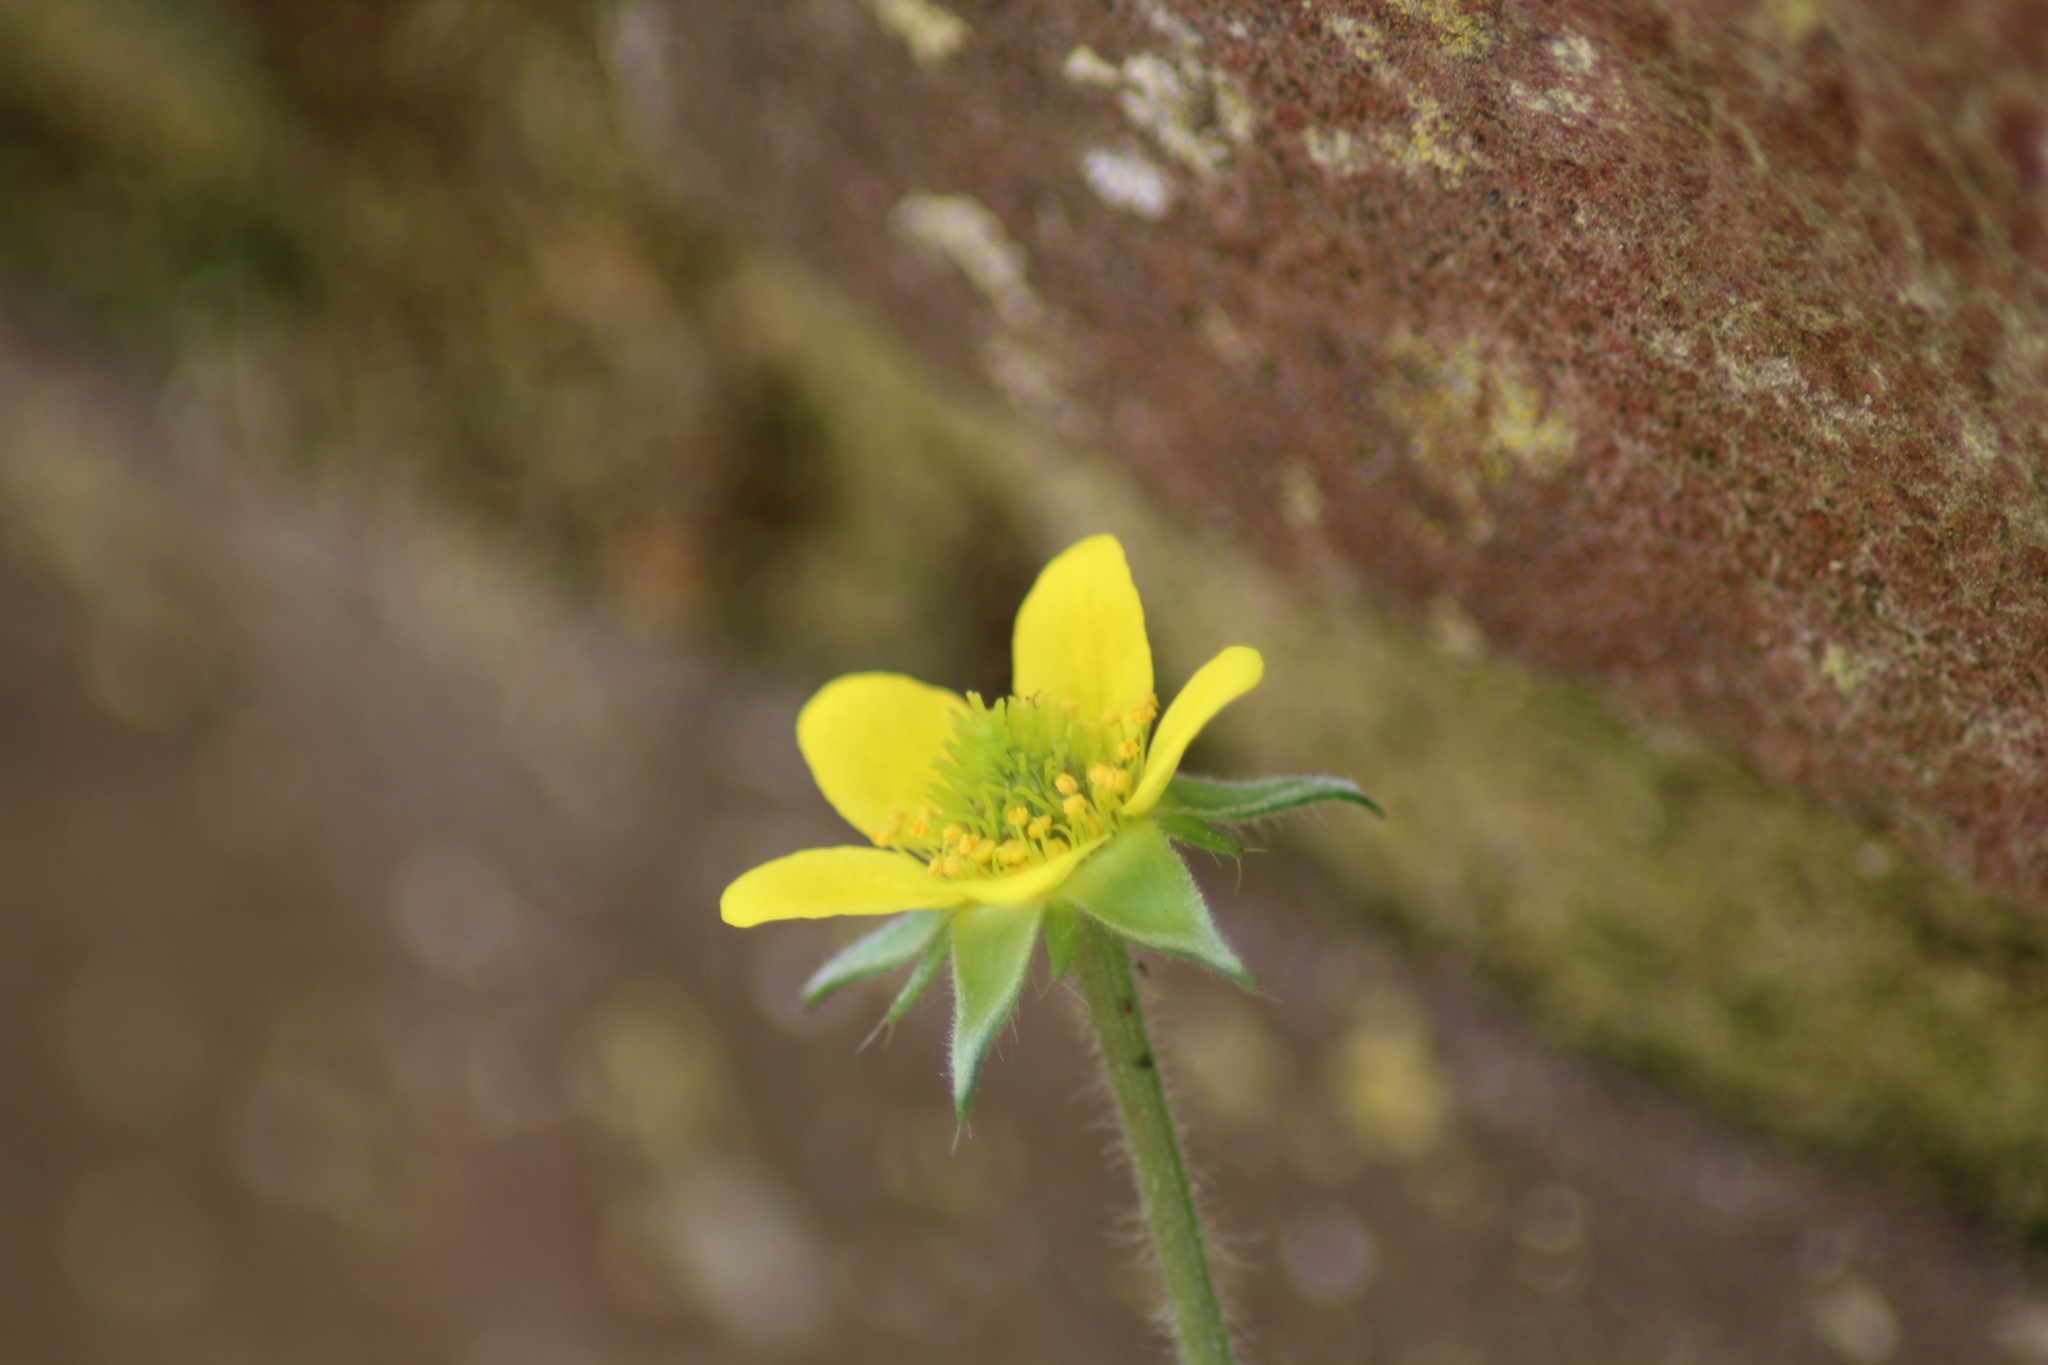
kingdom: Plantae
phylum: Tracheophyta
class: Magnoliopsida
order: Rosales
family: Rosaceae
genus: Geum
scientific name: Geum urbanum
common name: Wood avens
